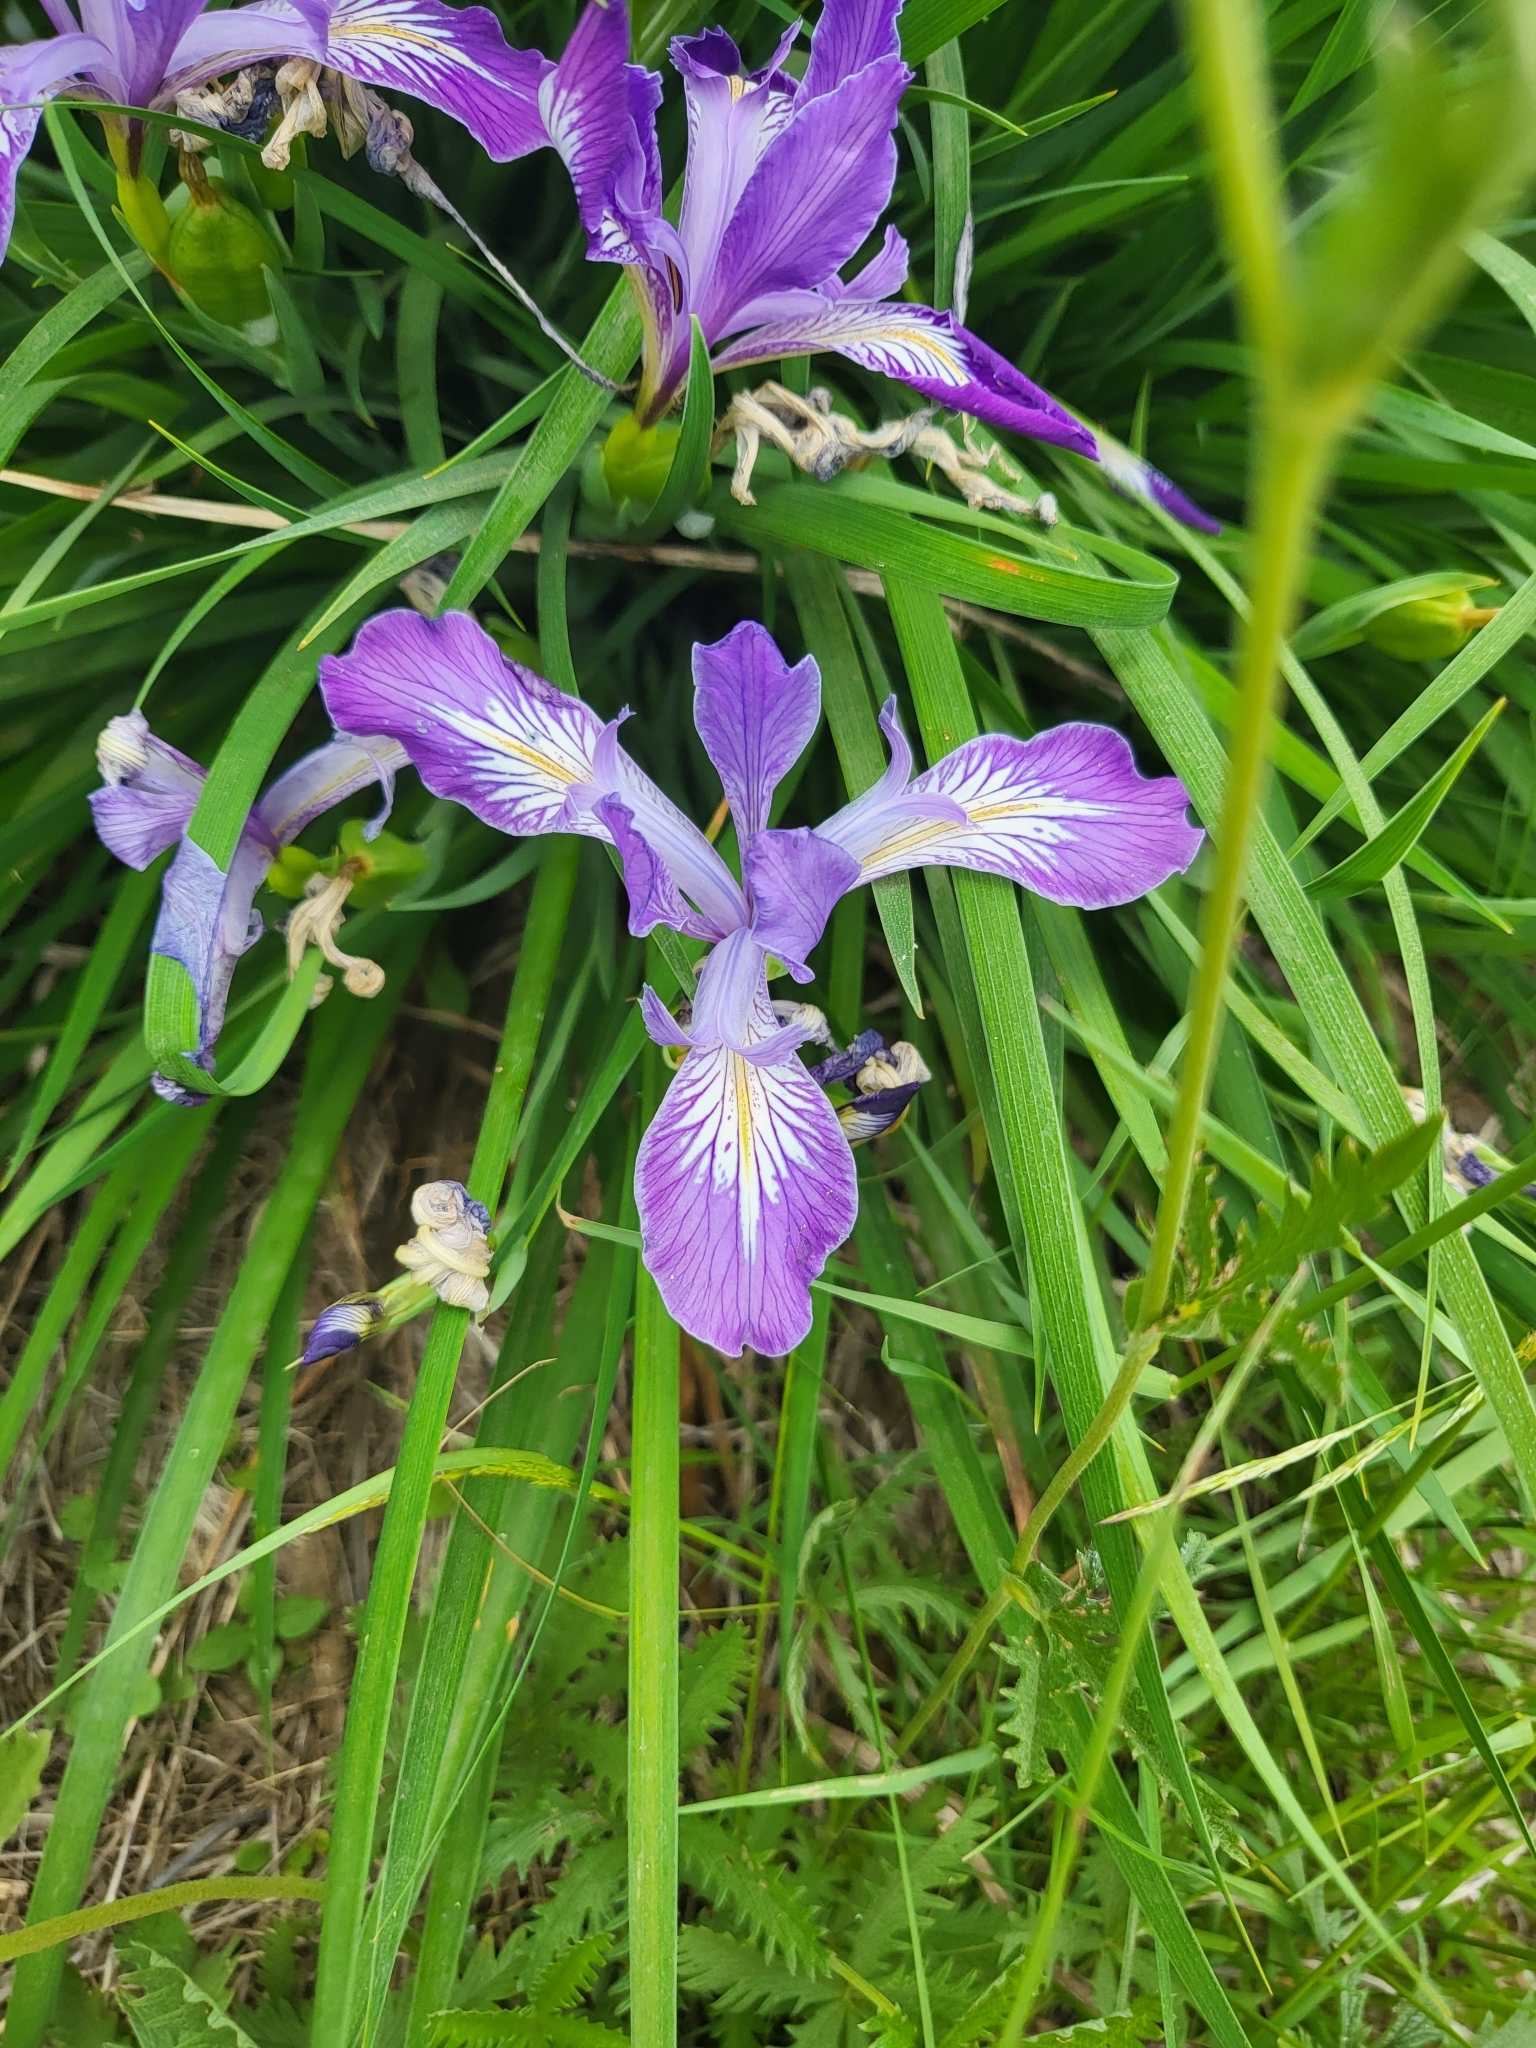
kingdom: Plantae
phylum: Tracheophyta
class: Liliopsida
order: Asparagales
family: Iridaceae
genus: Iris
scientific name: Iris tenax
